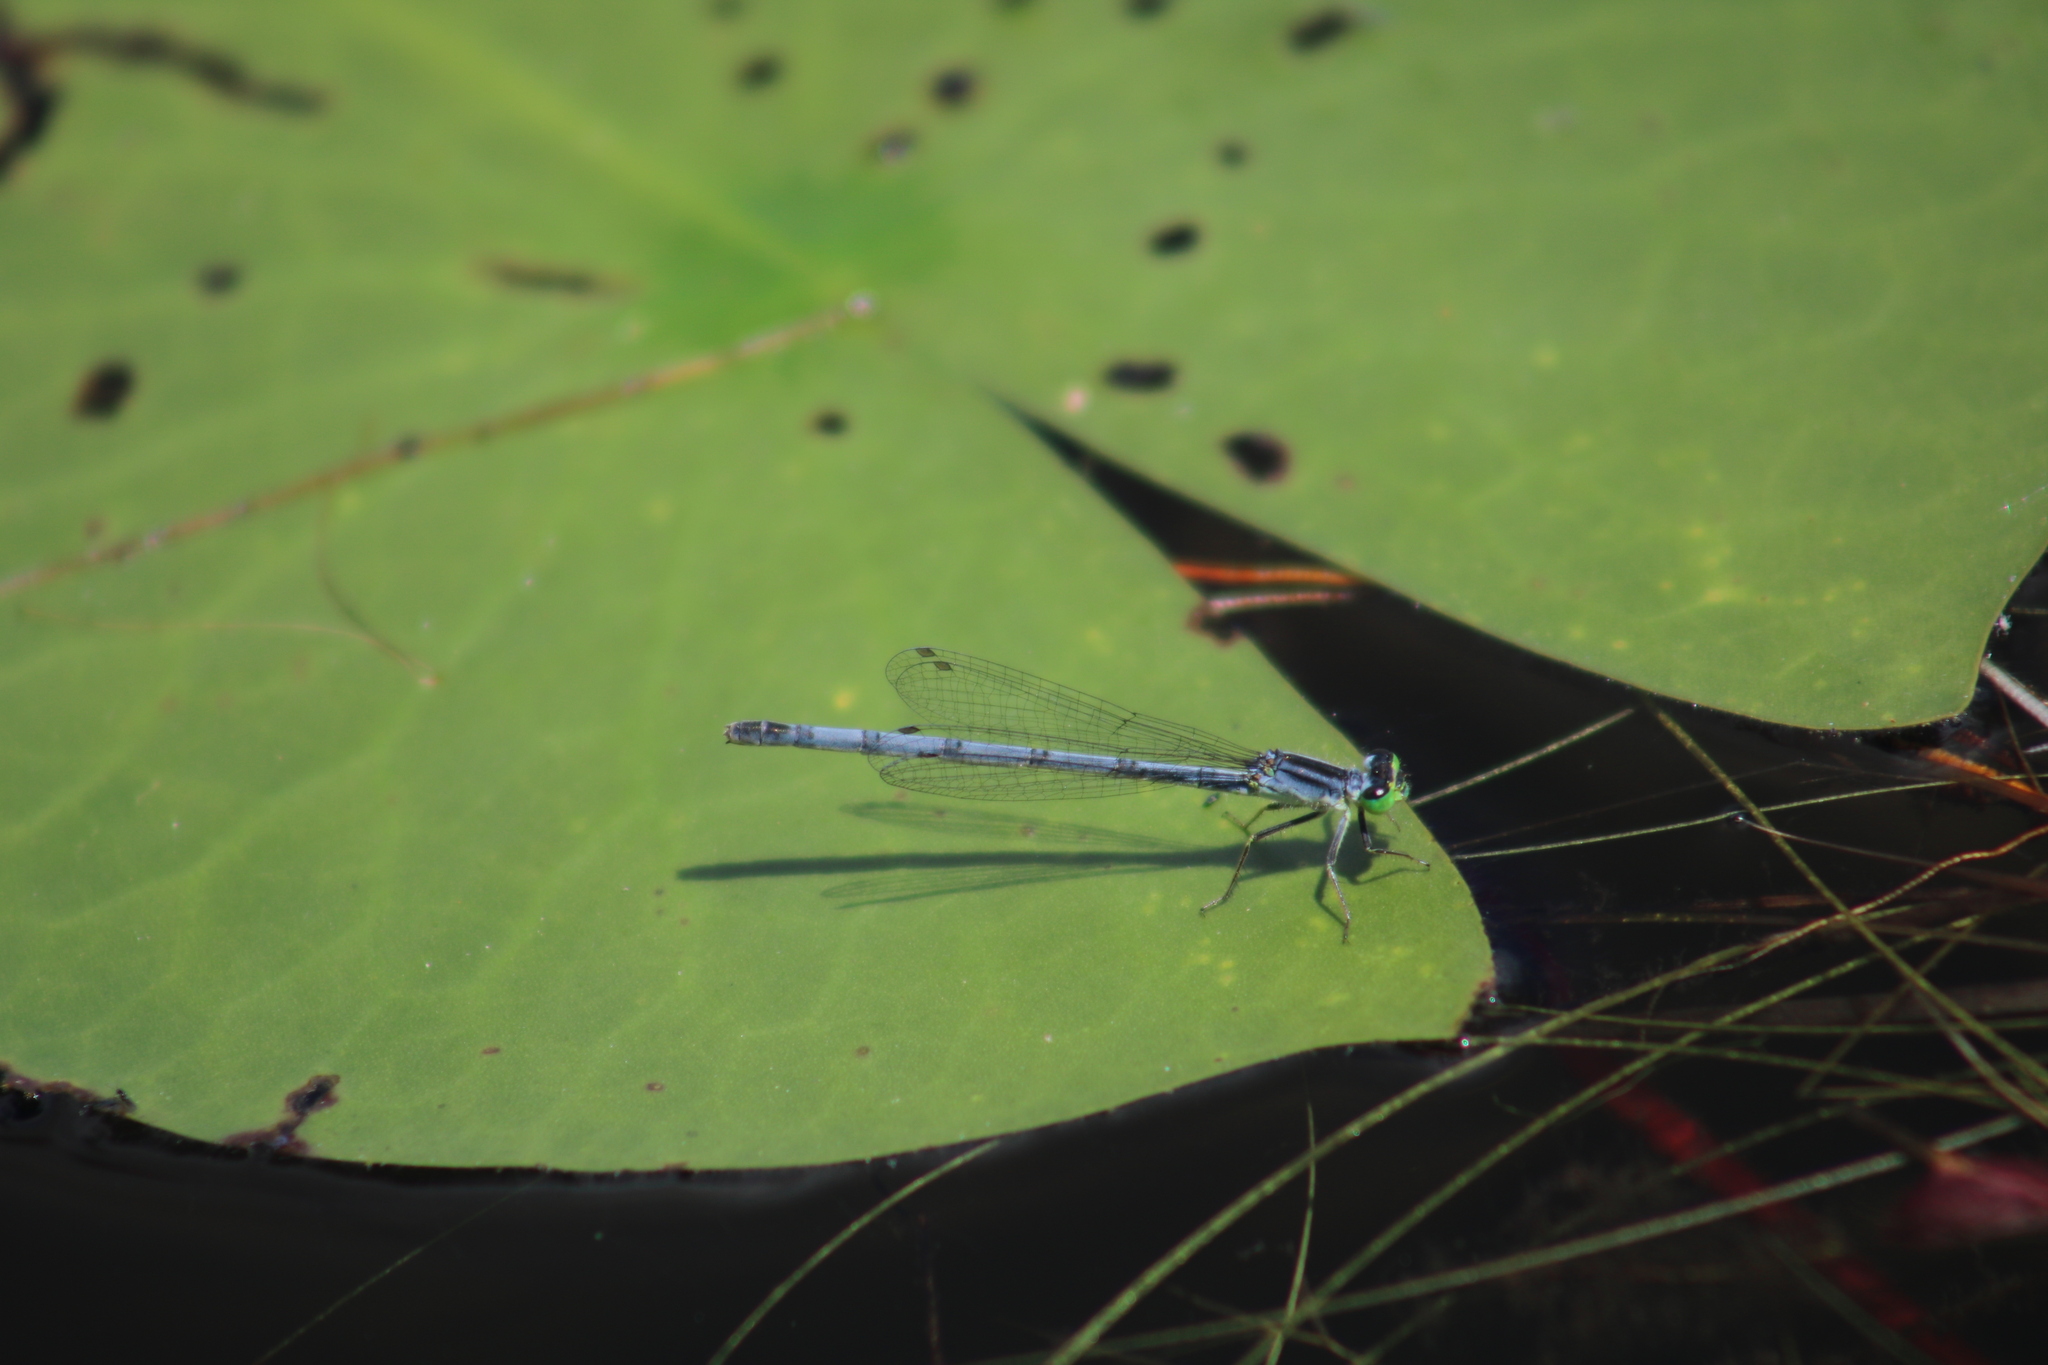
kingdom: Animalia
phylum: Arthropoda
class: Insecta
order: Odonata
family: Coenagrionidae
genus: Ischnura
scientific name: Ischnura verticalis
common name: Eastern forktail
